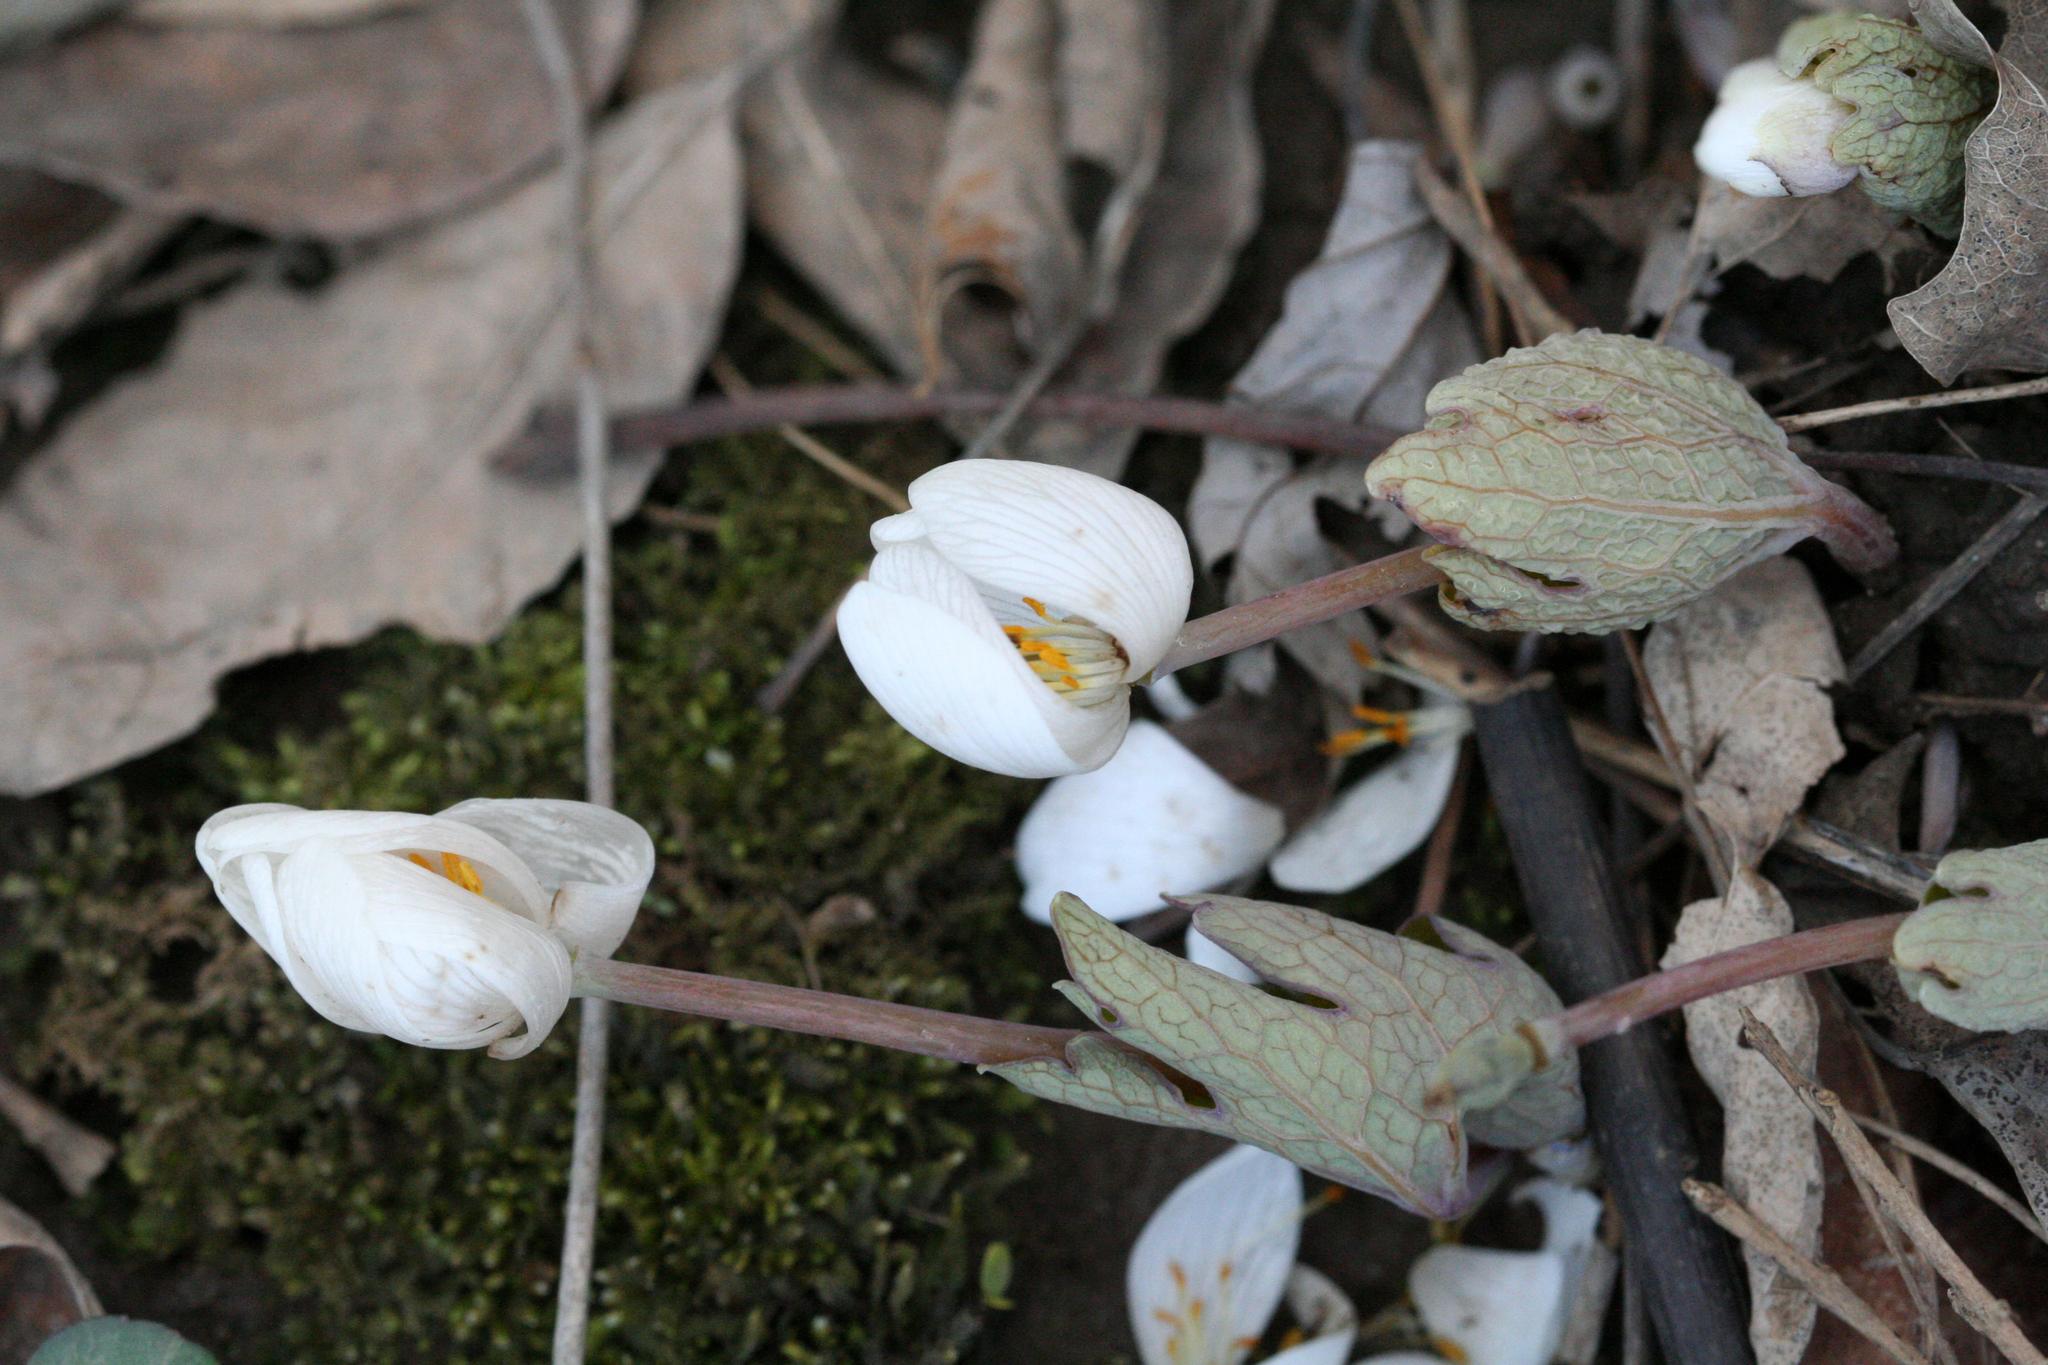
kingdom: Plantae
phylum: Tracheophyta
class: Magnoliopsida
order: Ranunculales
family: Papaveraceae
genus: Sanguinaria
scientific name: Sanguinaria canadensis
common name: Bloodroot
